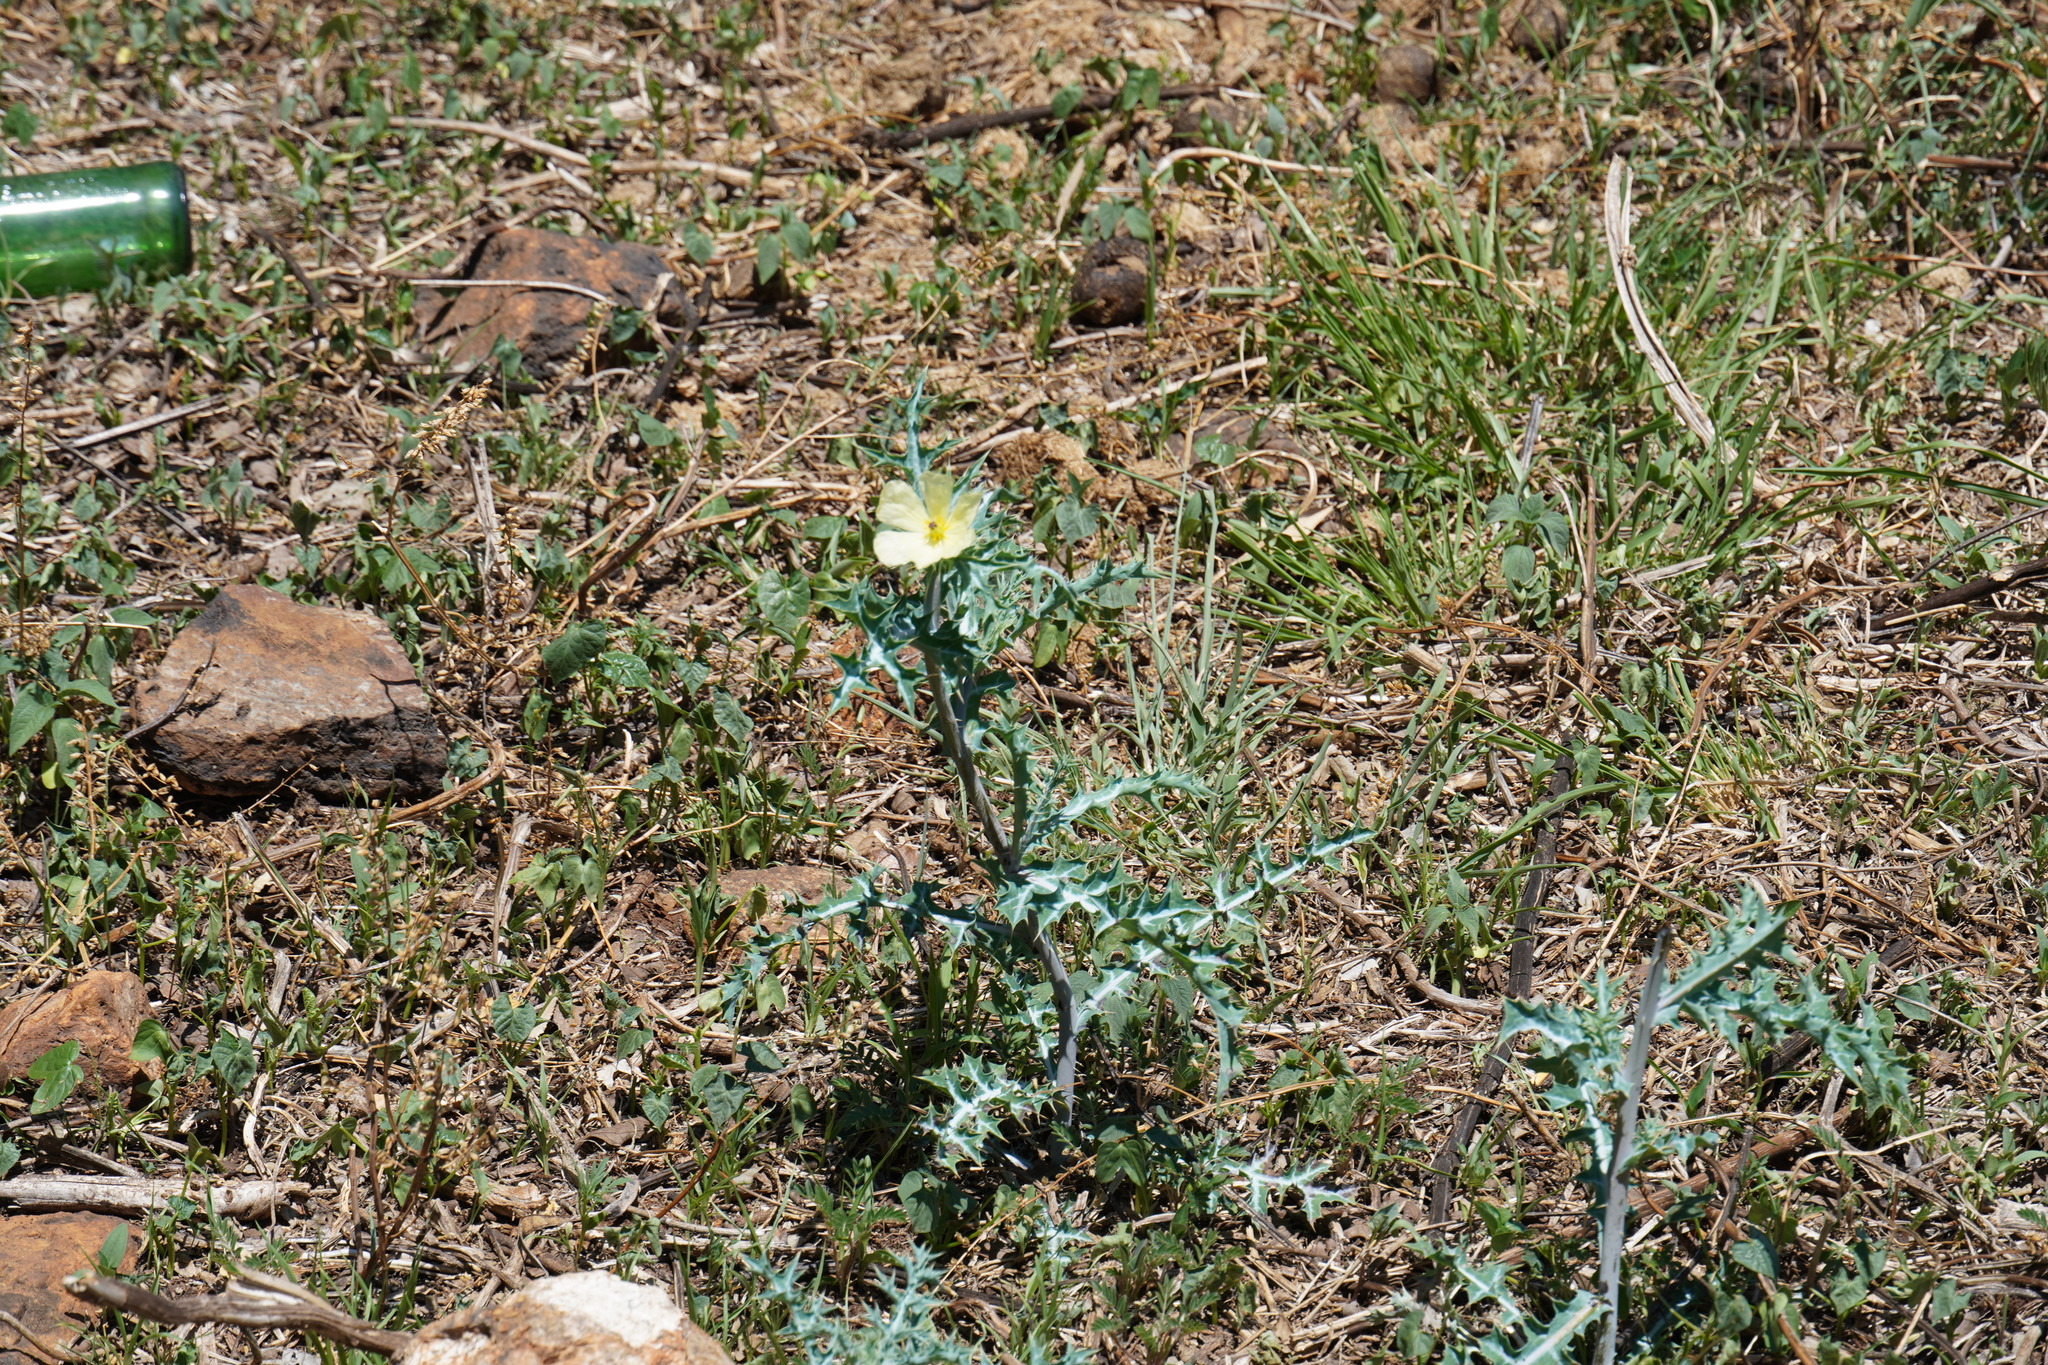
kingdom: Plantae
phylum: Tracheophyta
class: Magnoliopsida
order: Ranunculales
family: Papaveraceae
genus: Argemone
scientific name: Argemone ochroleuca
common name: White-flower mexican-poppy
